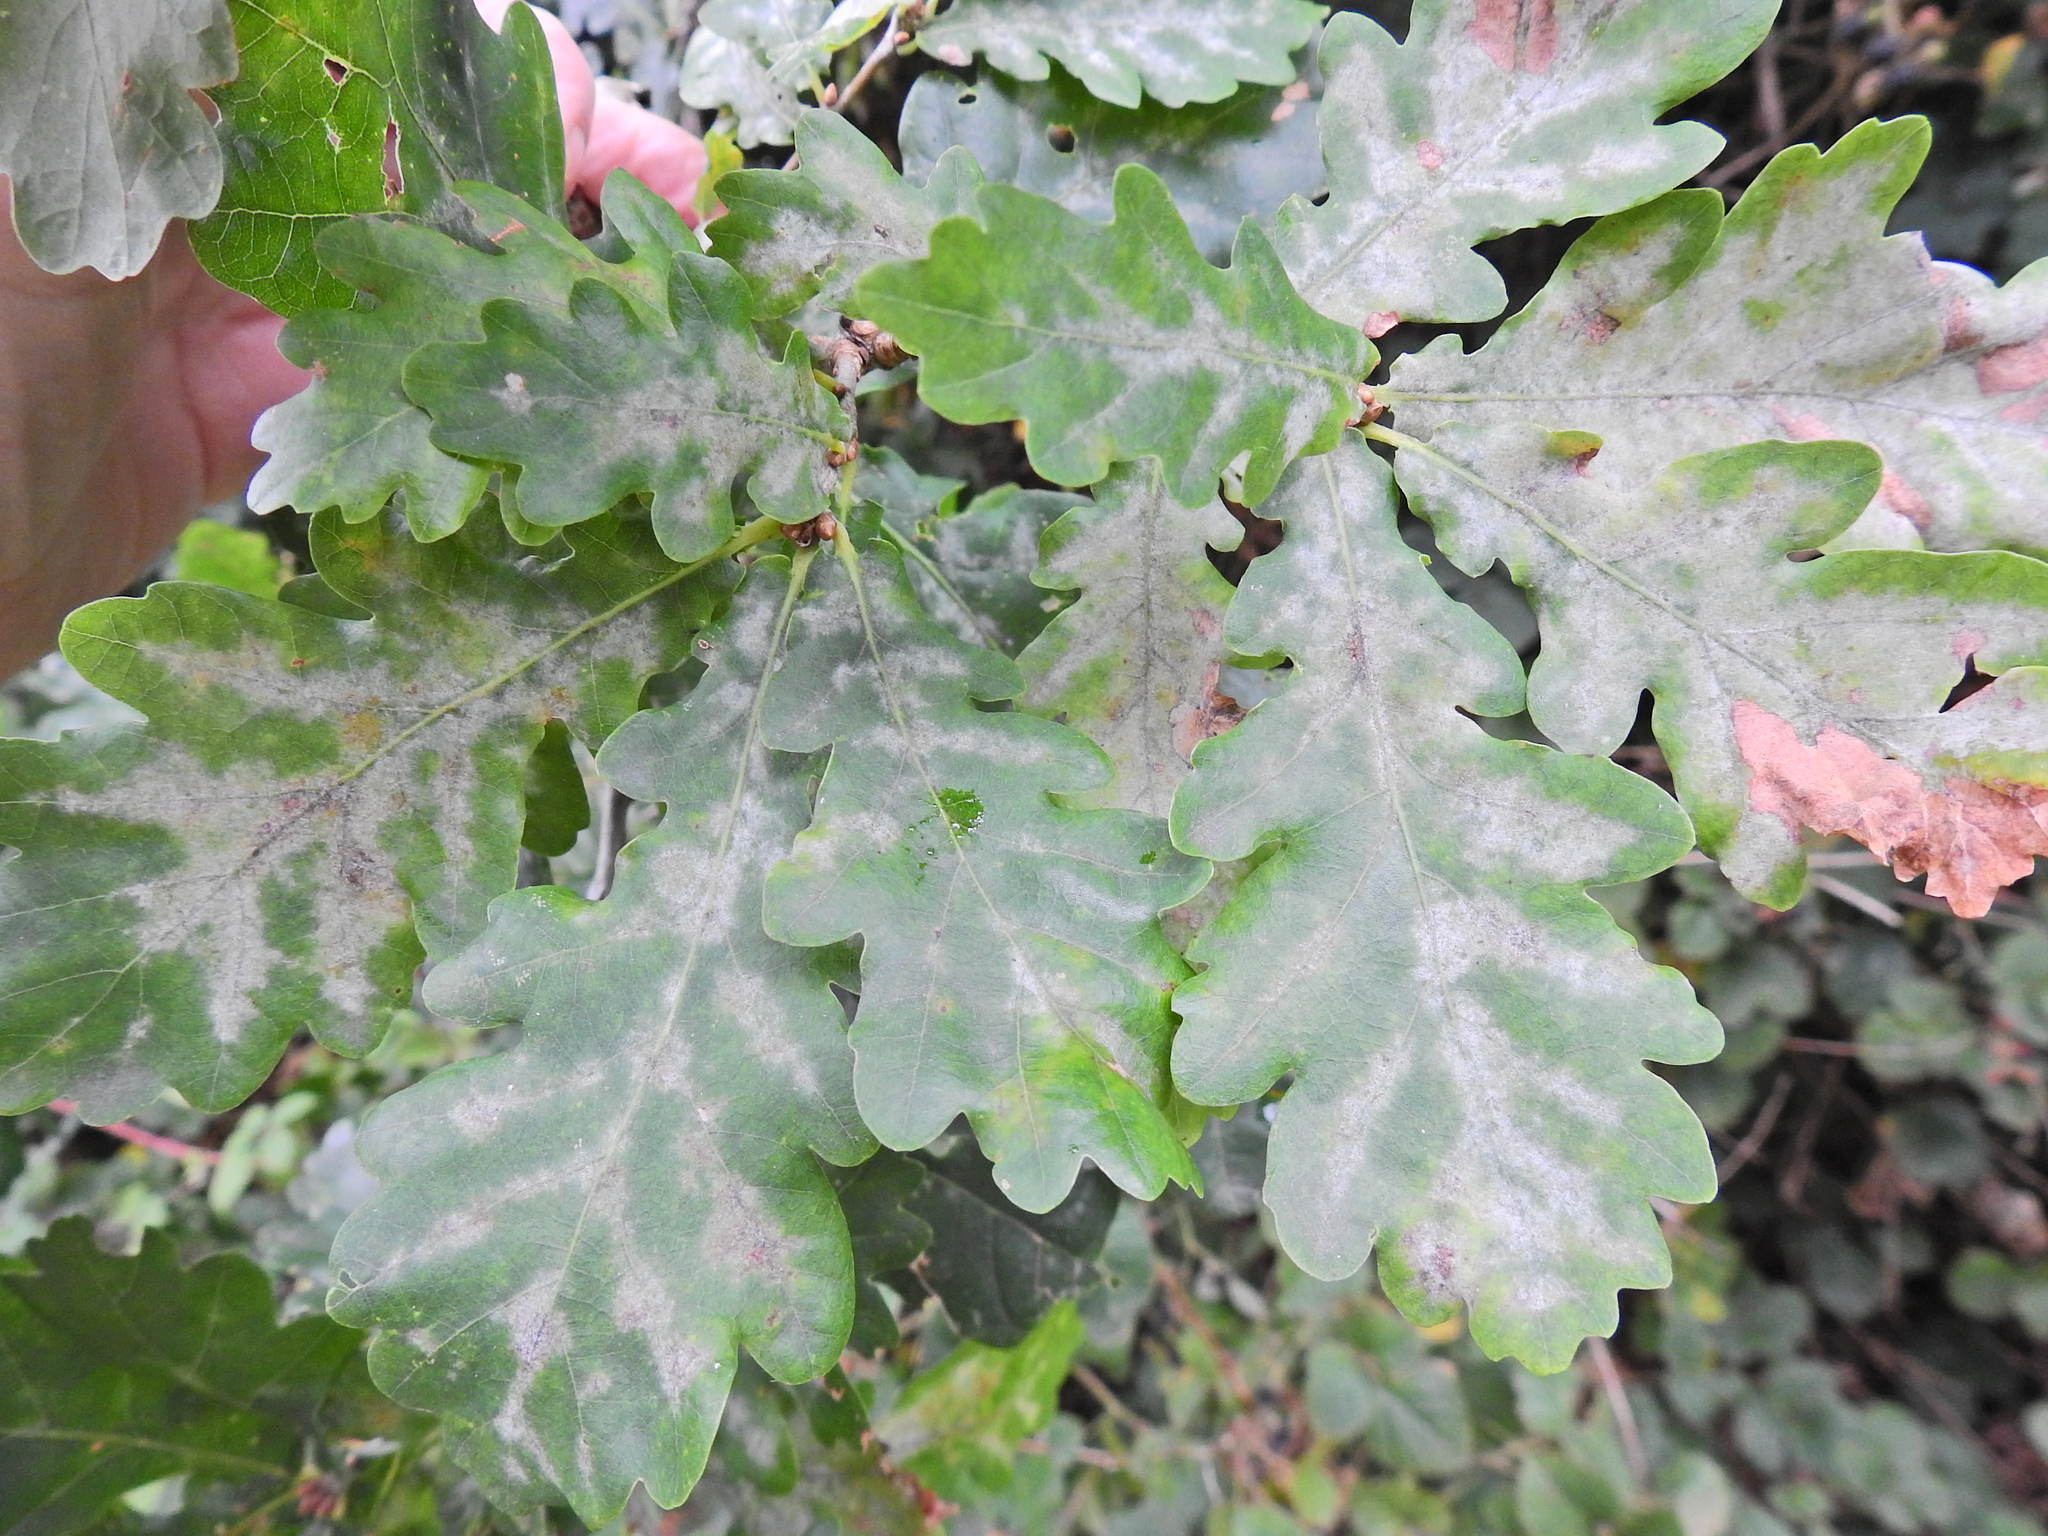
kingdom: Fungi
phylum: Ascomycota
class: Leotiomycetes
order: Helotiales
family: Erysiphaceae
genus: Erysiphe
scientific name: Erysiphe alphitoides
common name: Oak mildew
